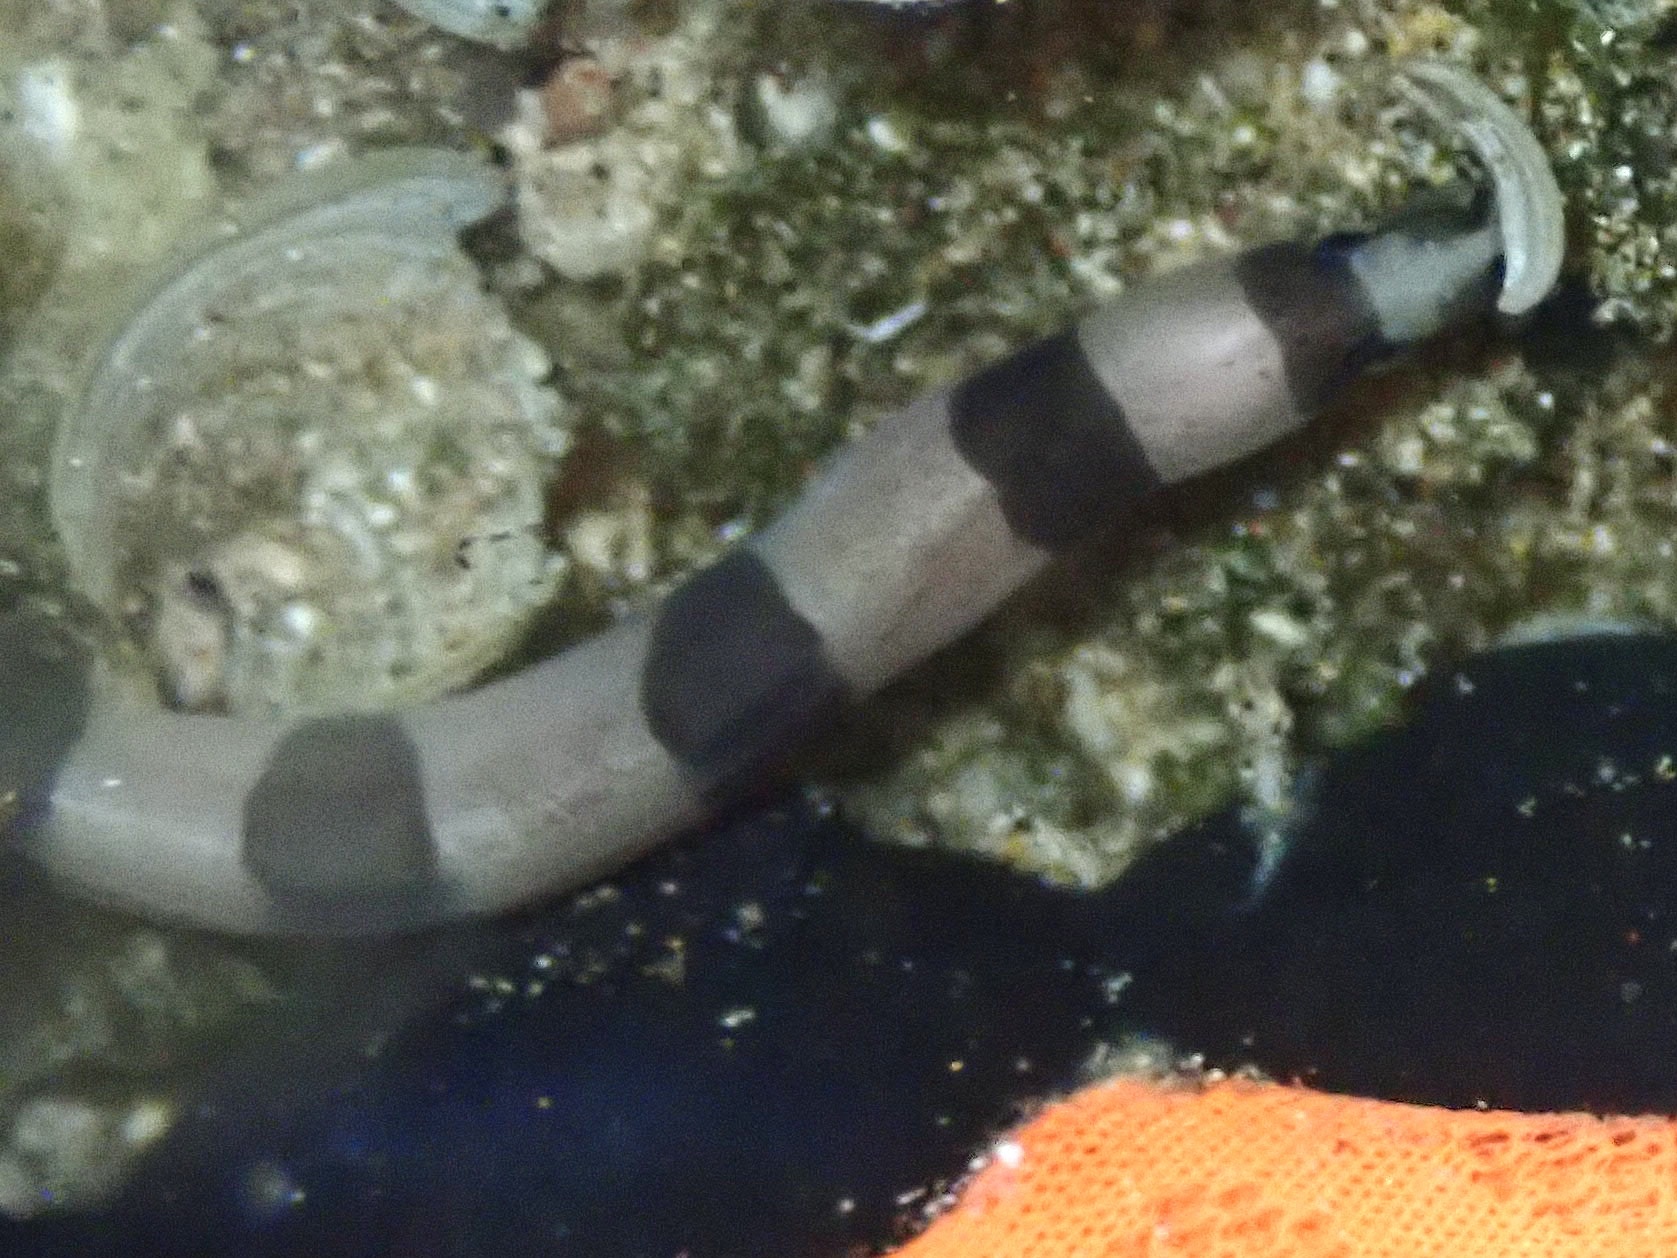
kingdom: Animalia
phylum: Chordata
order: Anguilliformes
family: Congridae
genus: Conger
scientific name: Conger marginatus
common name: Ash-colored conger eel
